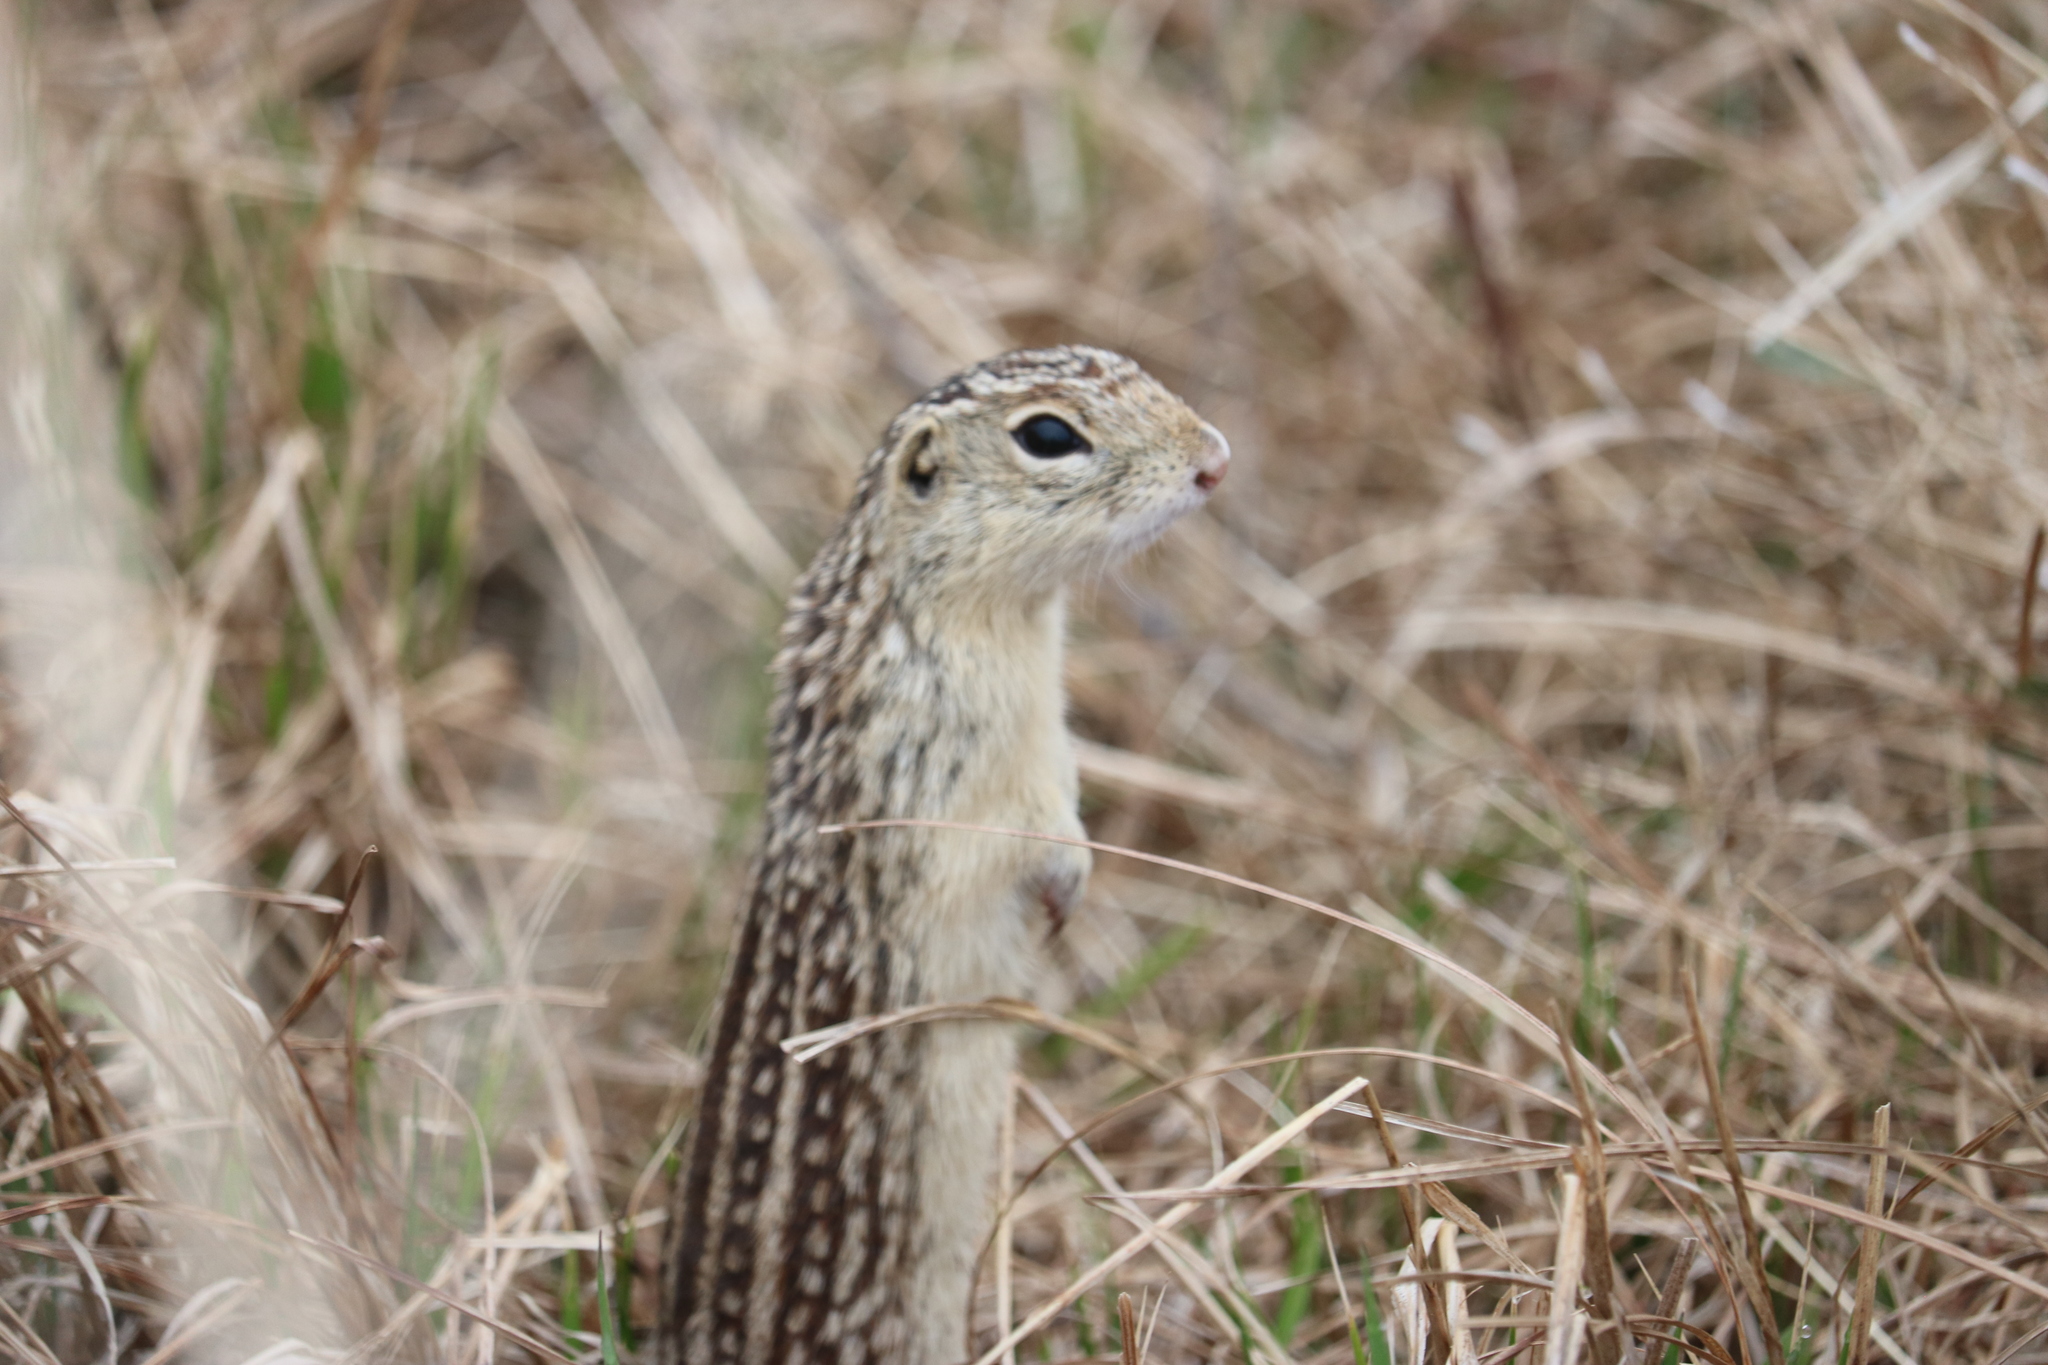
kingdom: Animalia
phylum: Chordata
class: Mammalia
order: Rodentia
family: Sciuridae
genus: Ictidomys
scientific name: Ictidomys tridecemlineatus
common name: Thirteen-lined ground squirrel
